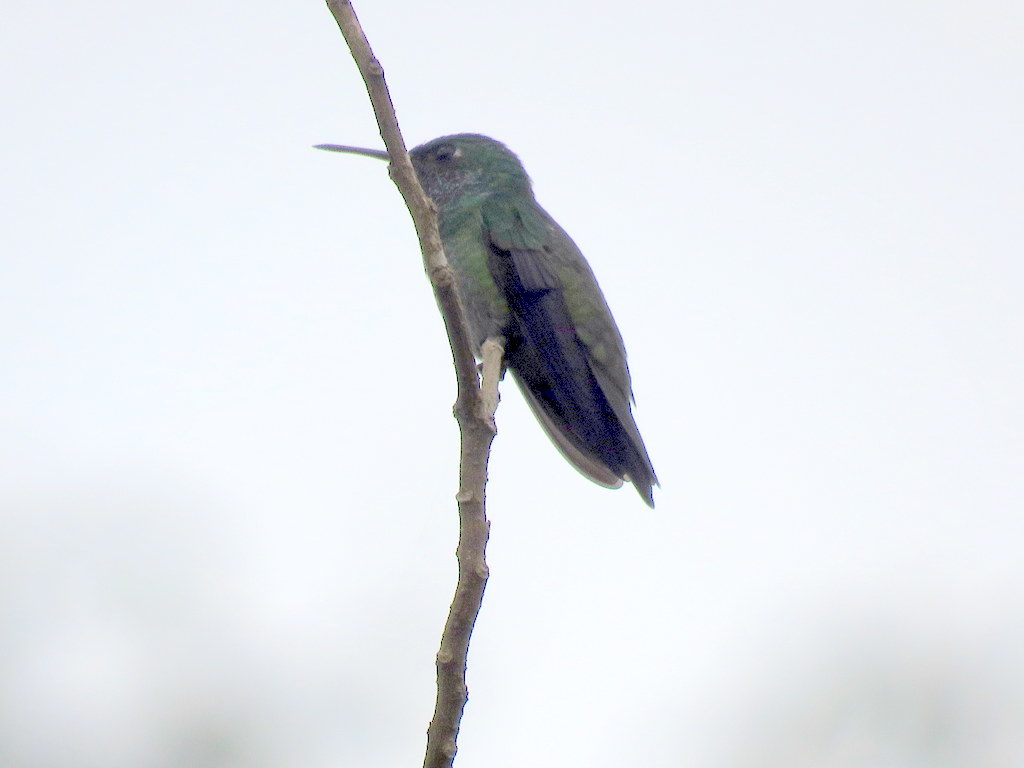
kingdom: Animalia
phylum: Chordata
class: Aves
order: Apodiformes
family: Trochilidae
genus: Chrysuronia
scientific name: Chrysuronia versicolor
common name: Versicolored emerald
